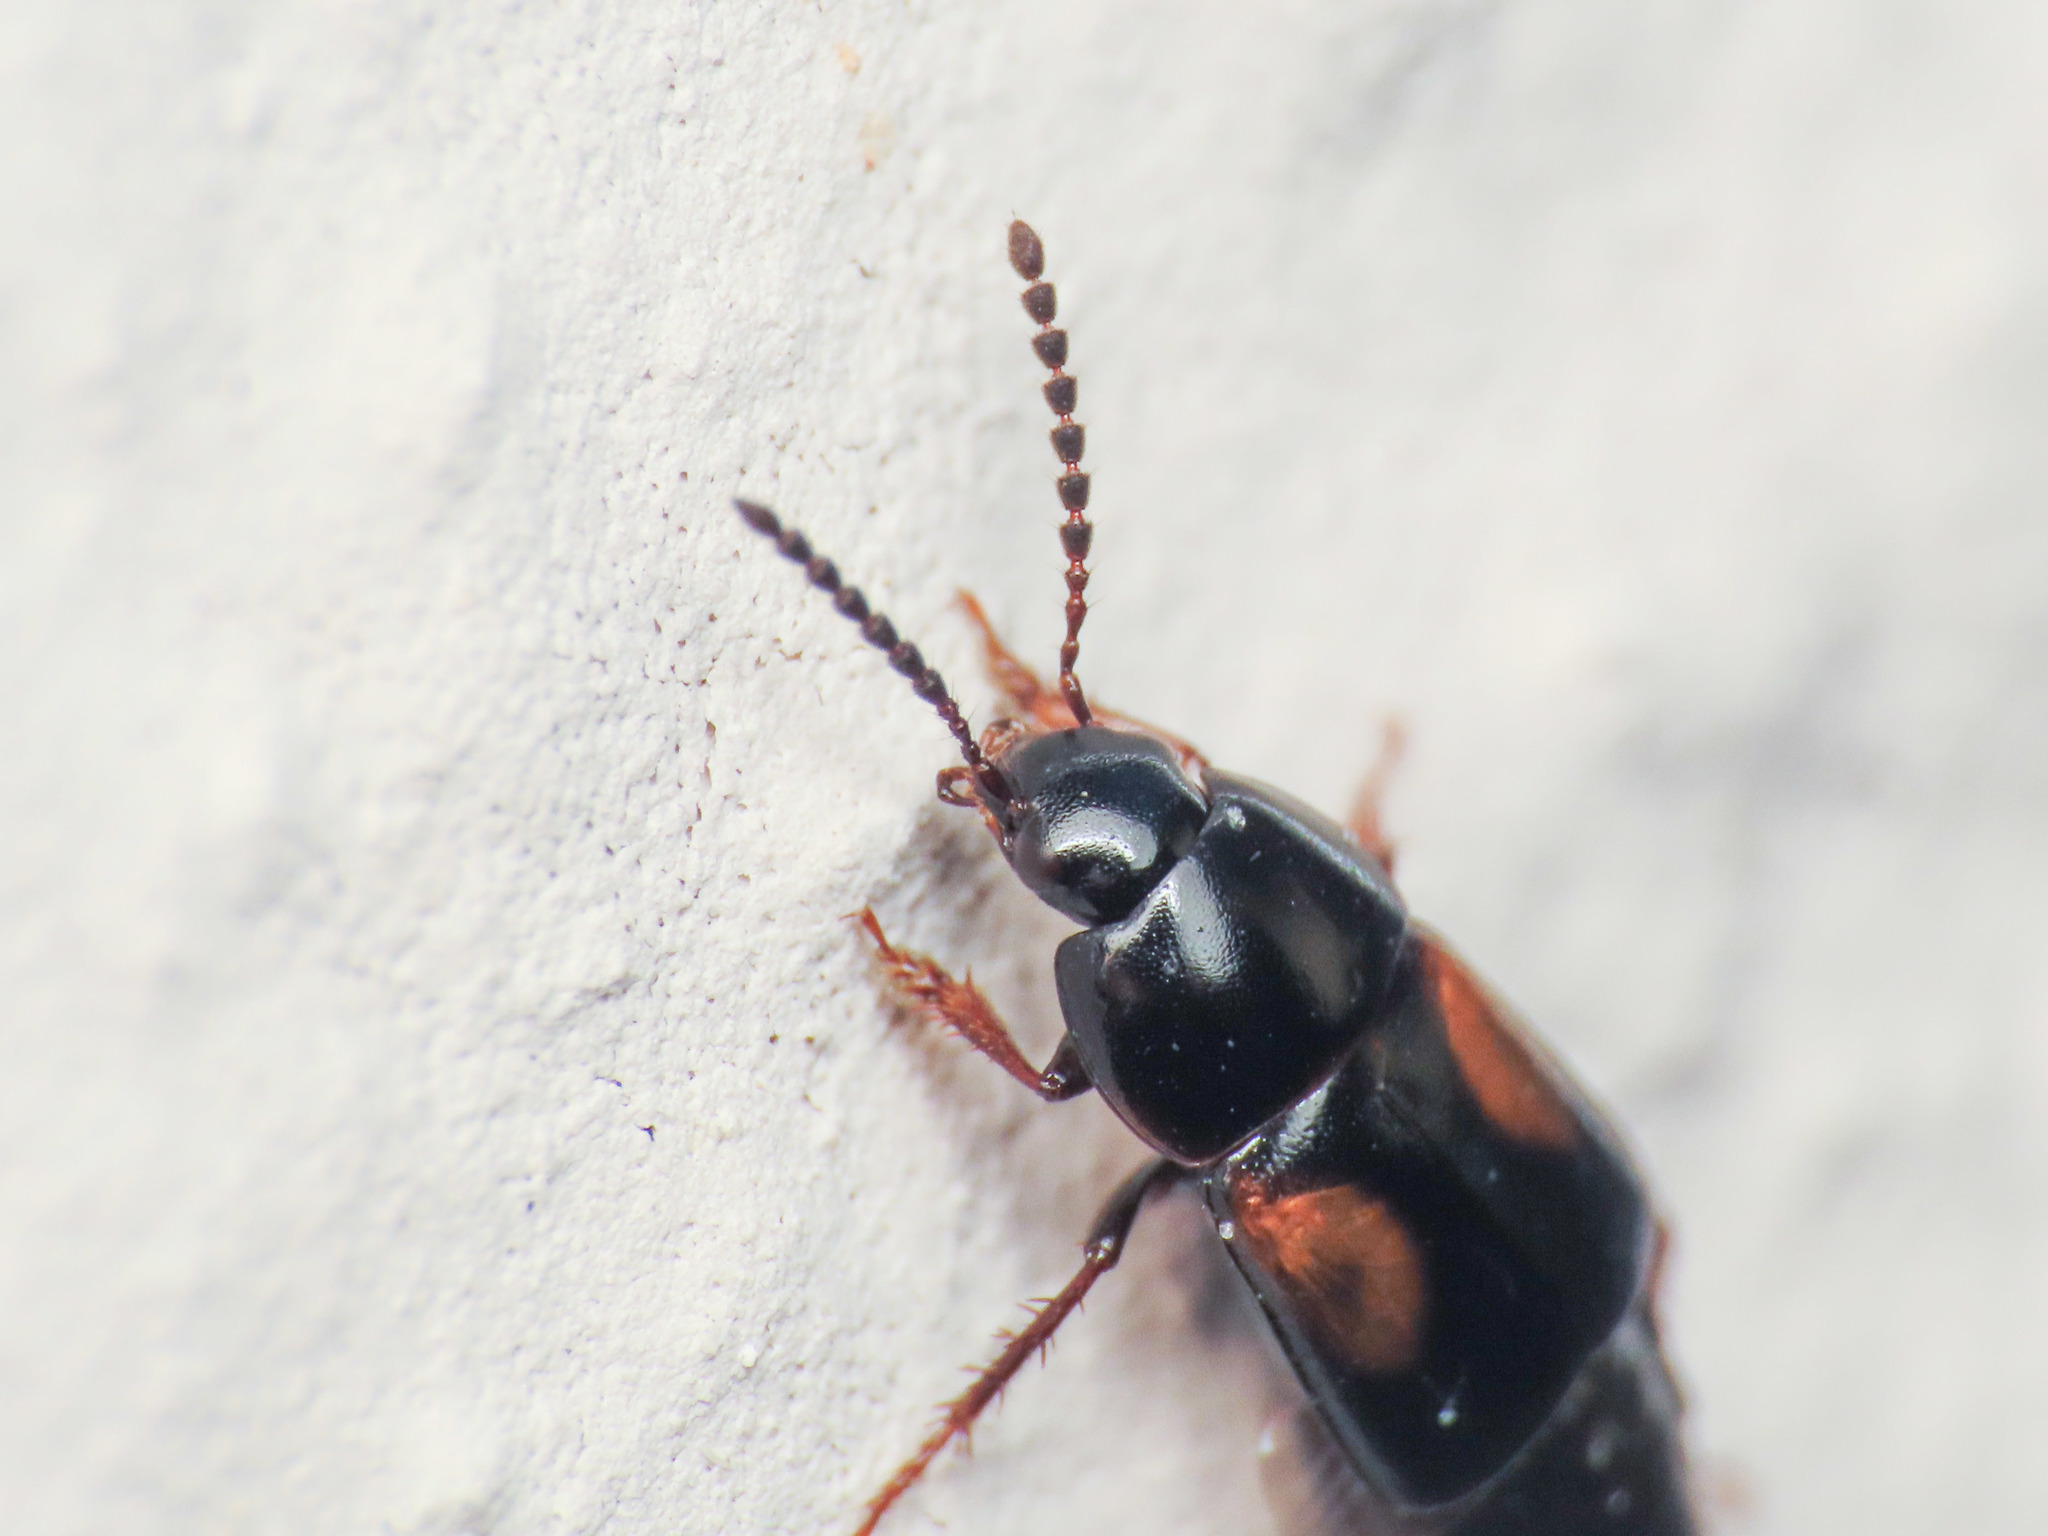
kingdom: Animalia
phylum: Arthropoda
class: Insecta
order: Coleoptera
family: Staphylinidae
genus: Tachinus
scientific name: Tachinus subterraneus
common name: Staph beetle
